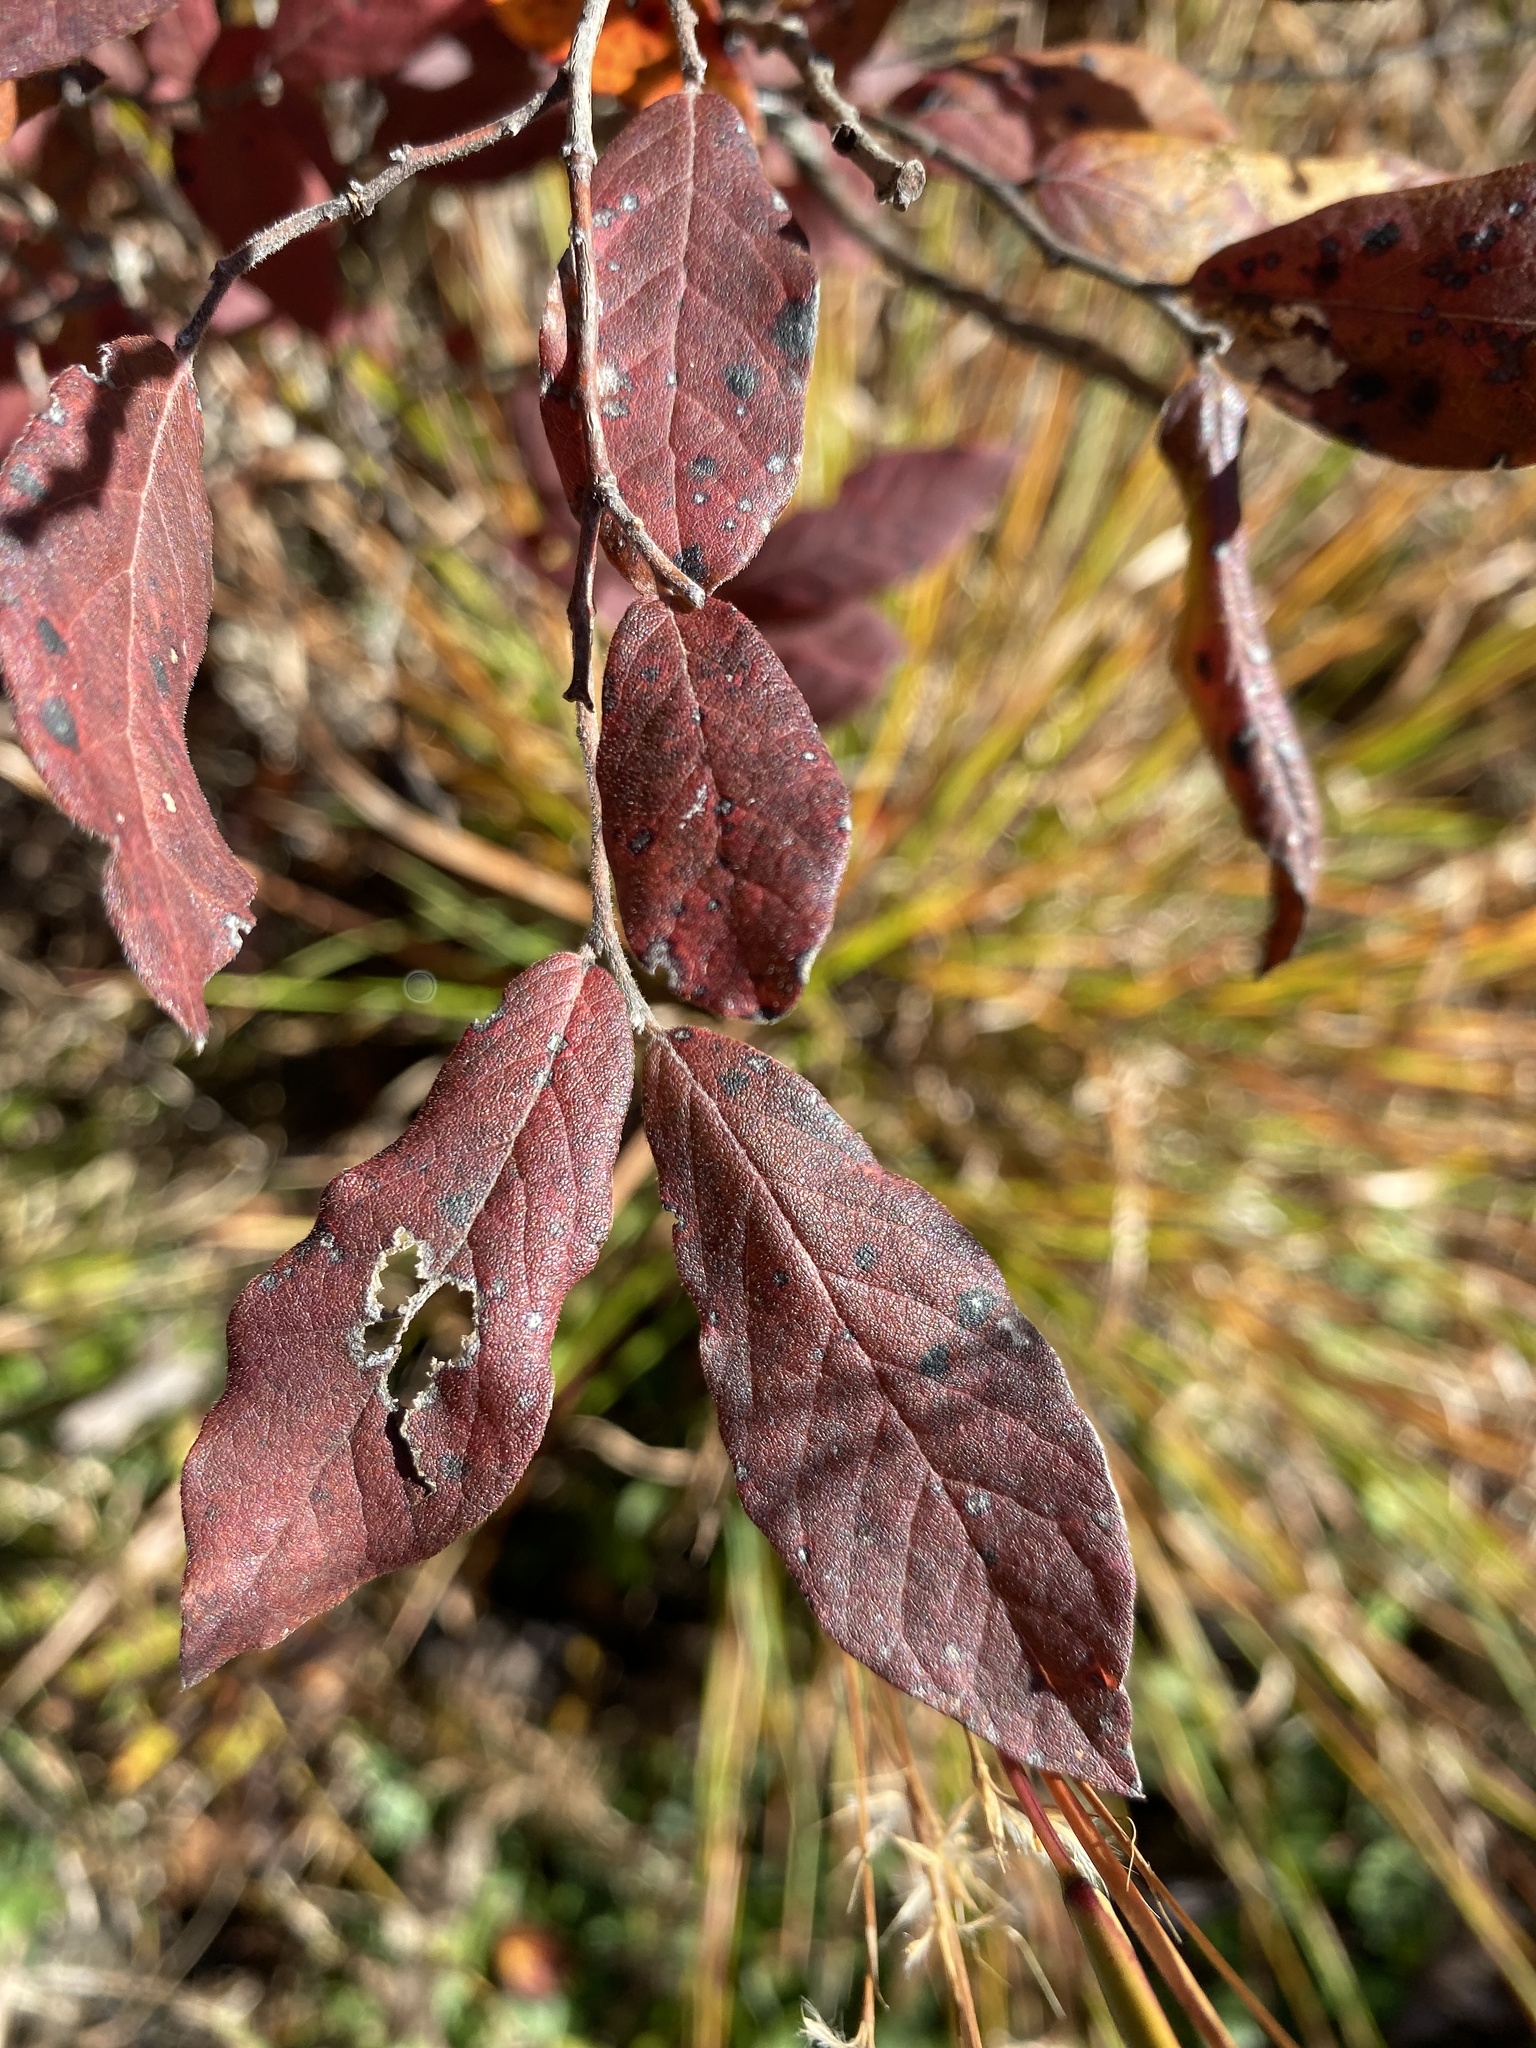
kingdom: Plantae
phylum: Tracheophyta
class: Magnoliopsida
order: Ericales
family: Ericaceae
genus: Gaylussacia
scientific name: Gaylussacia baccata
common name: Black huckleberry
